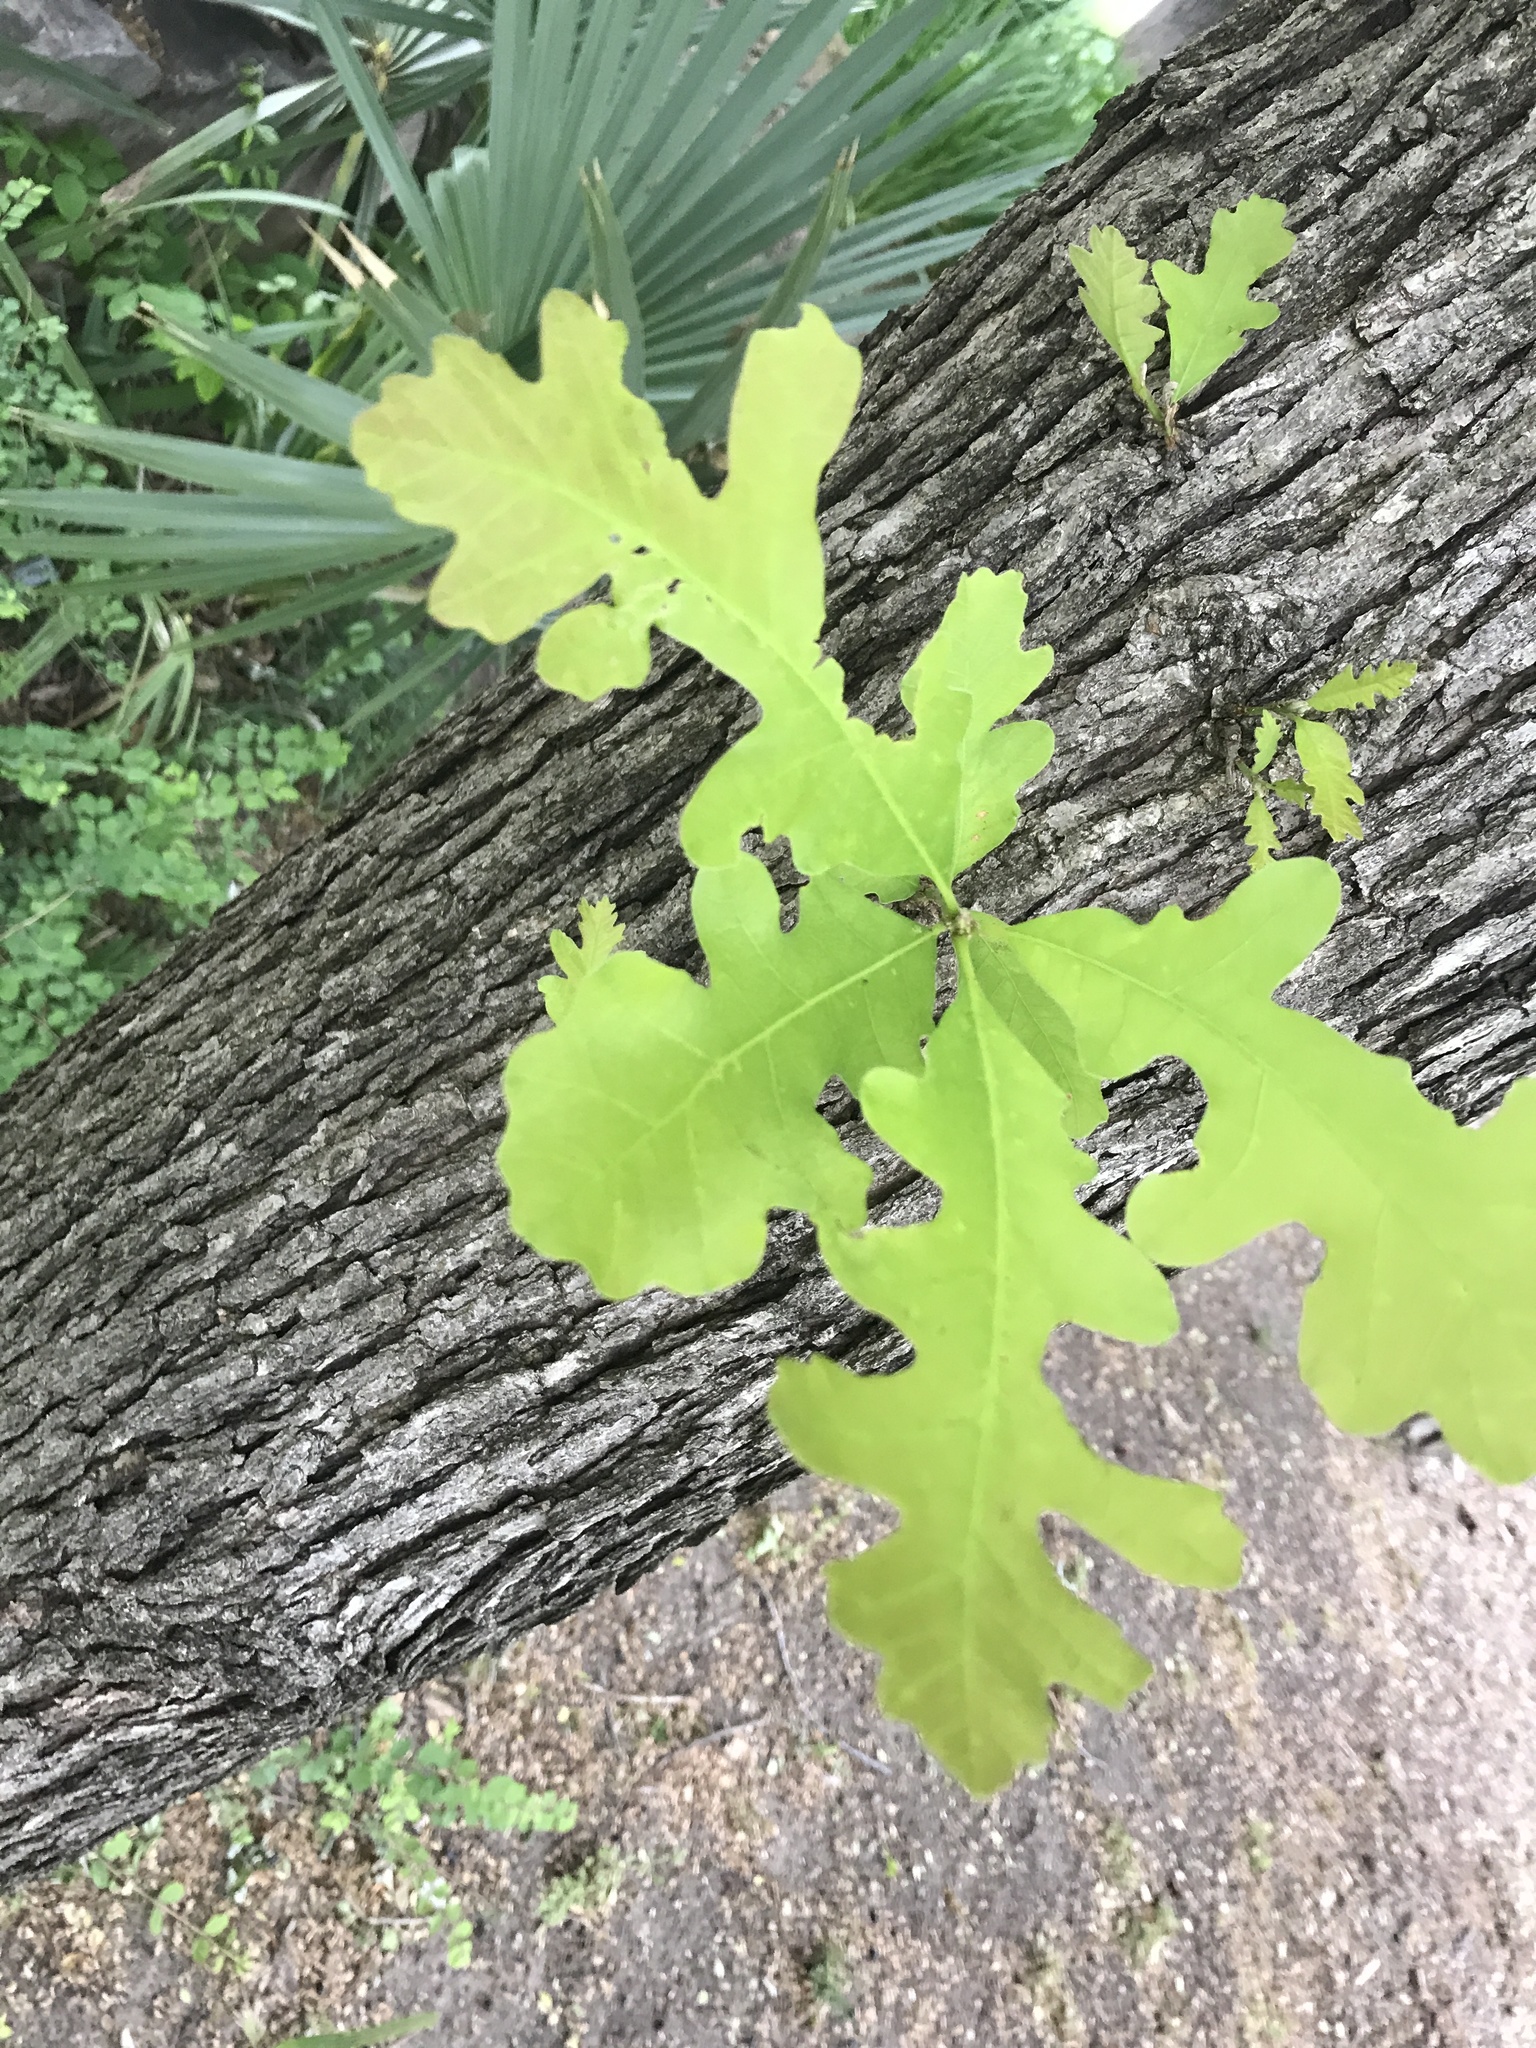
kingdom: Plantae
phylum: Tracheophyta
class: Magnoliopsida
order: Fagales
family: Fagaceae
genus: Quercus
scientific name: Quercus macrocarpa
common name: Bur oak
